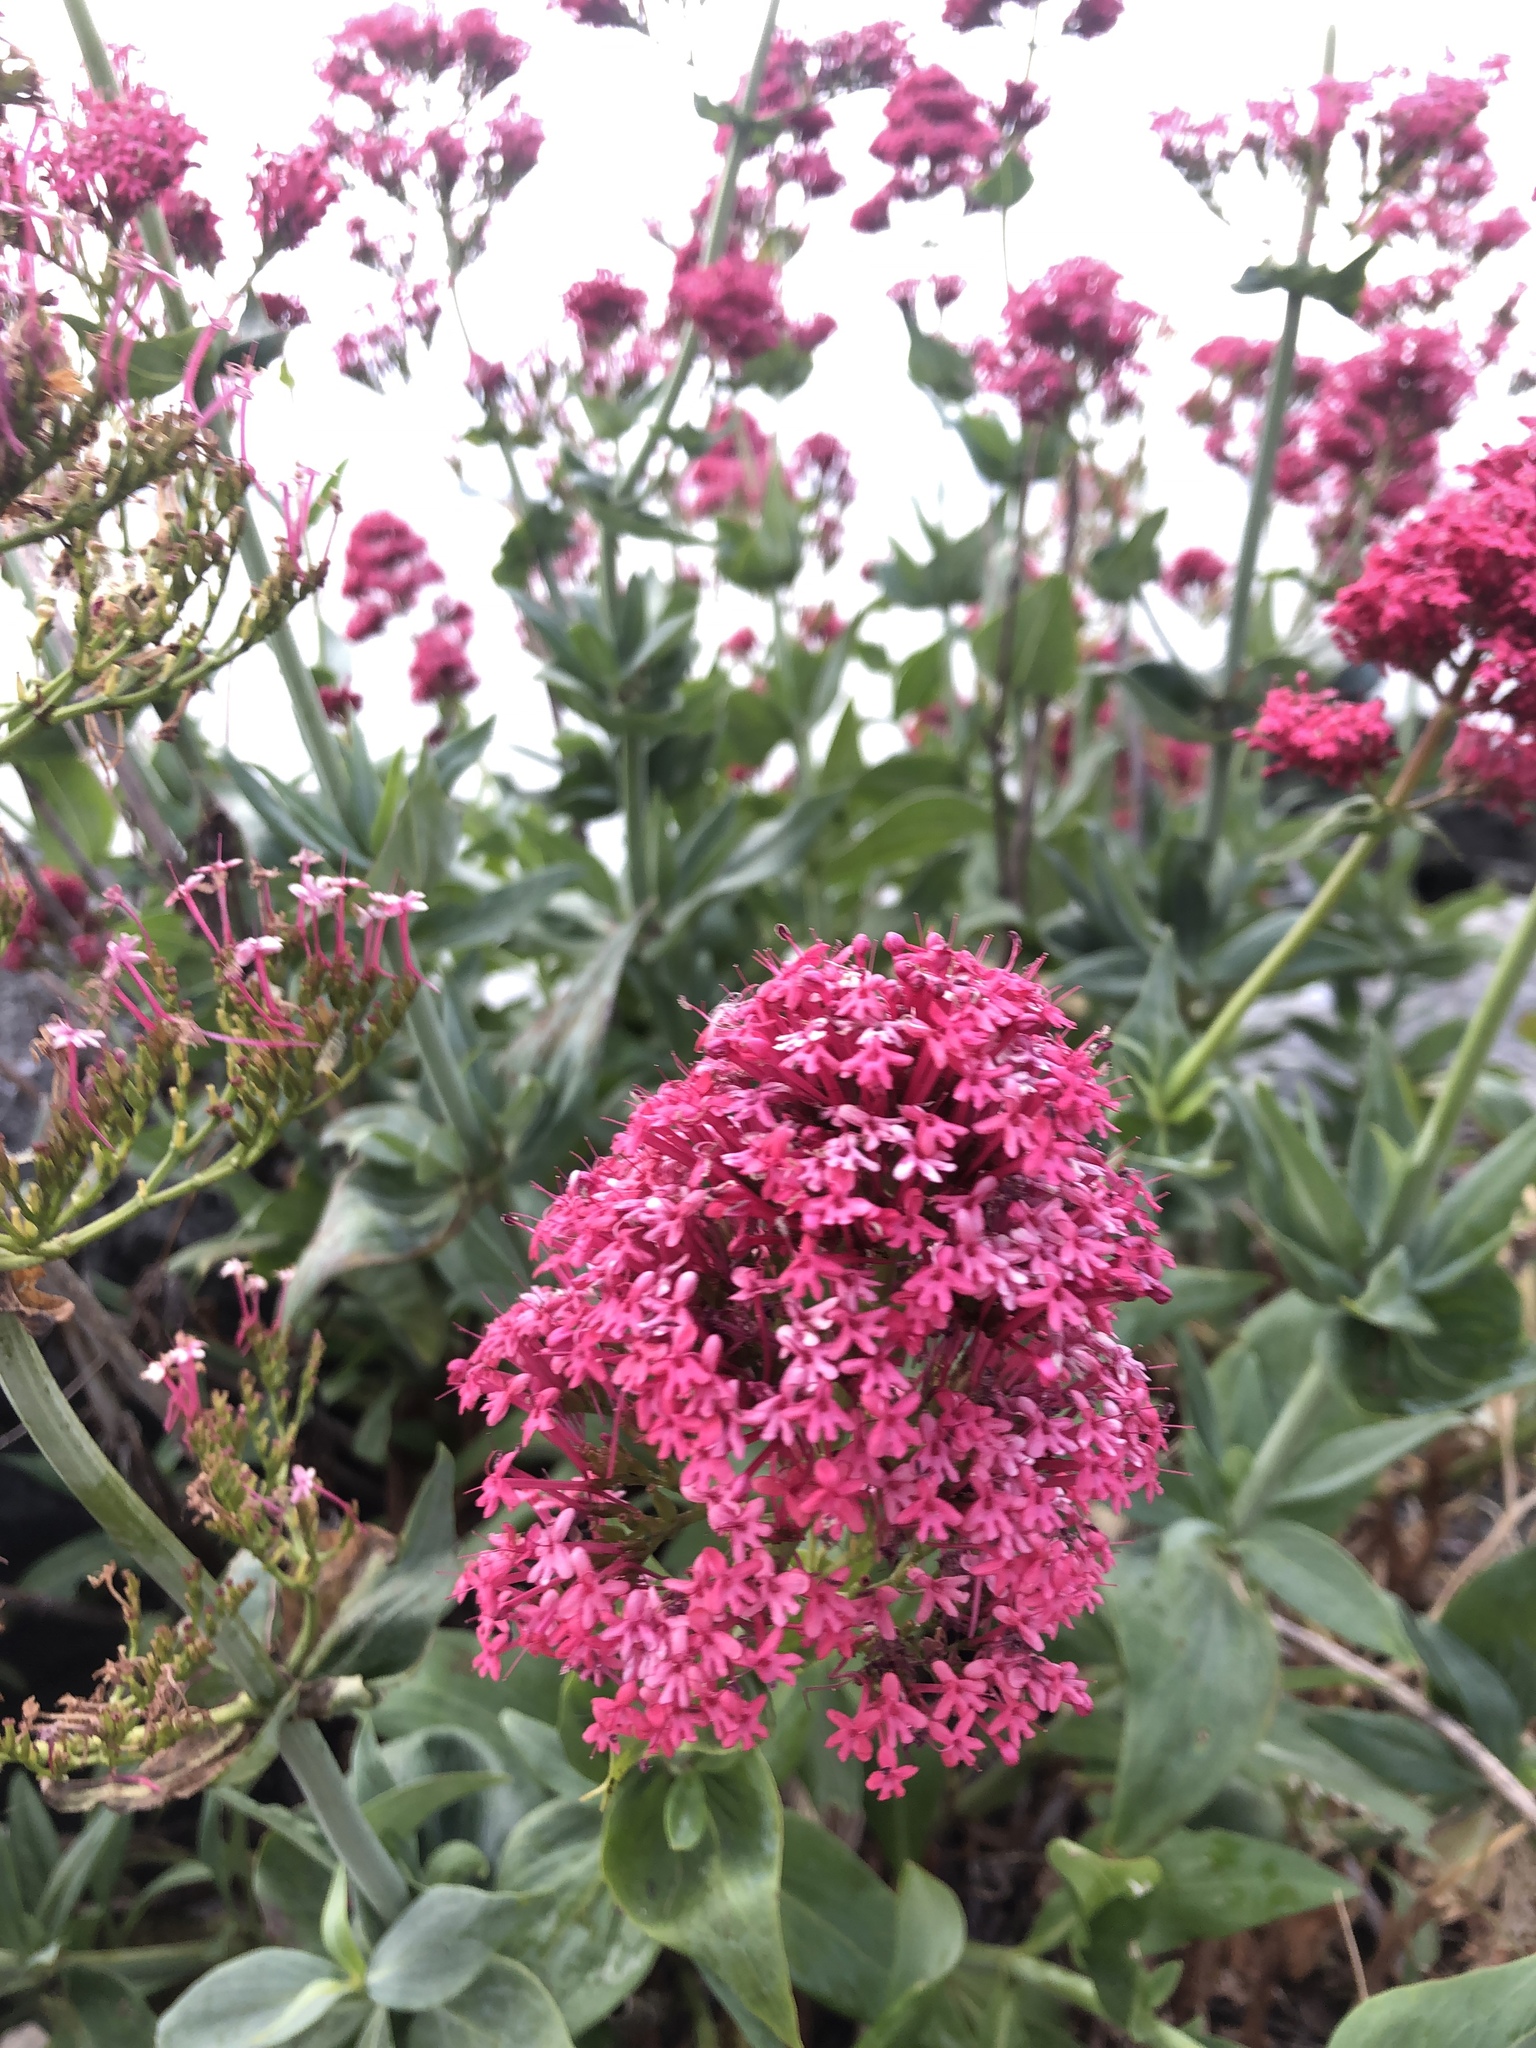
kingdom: Plantae
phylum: Tracheophyta
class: Magnoliopsida
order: Dipsacales
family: Caprifoliaceae
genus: Centranthus
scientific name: Centranthus ruber
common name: Red valerian
